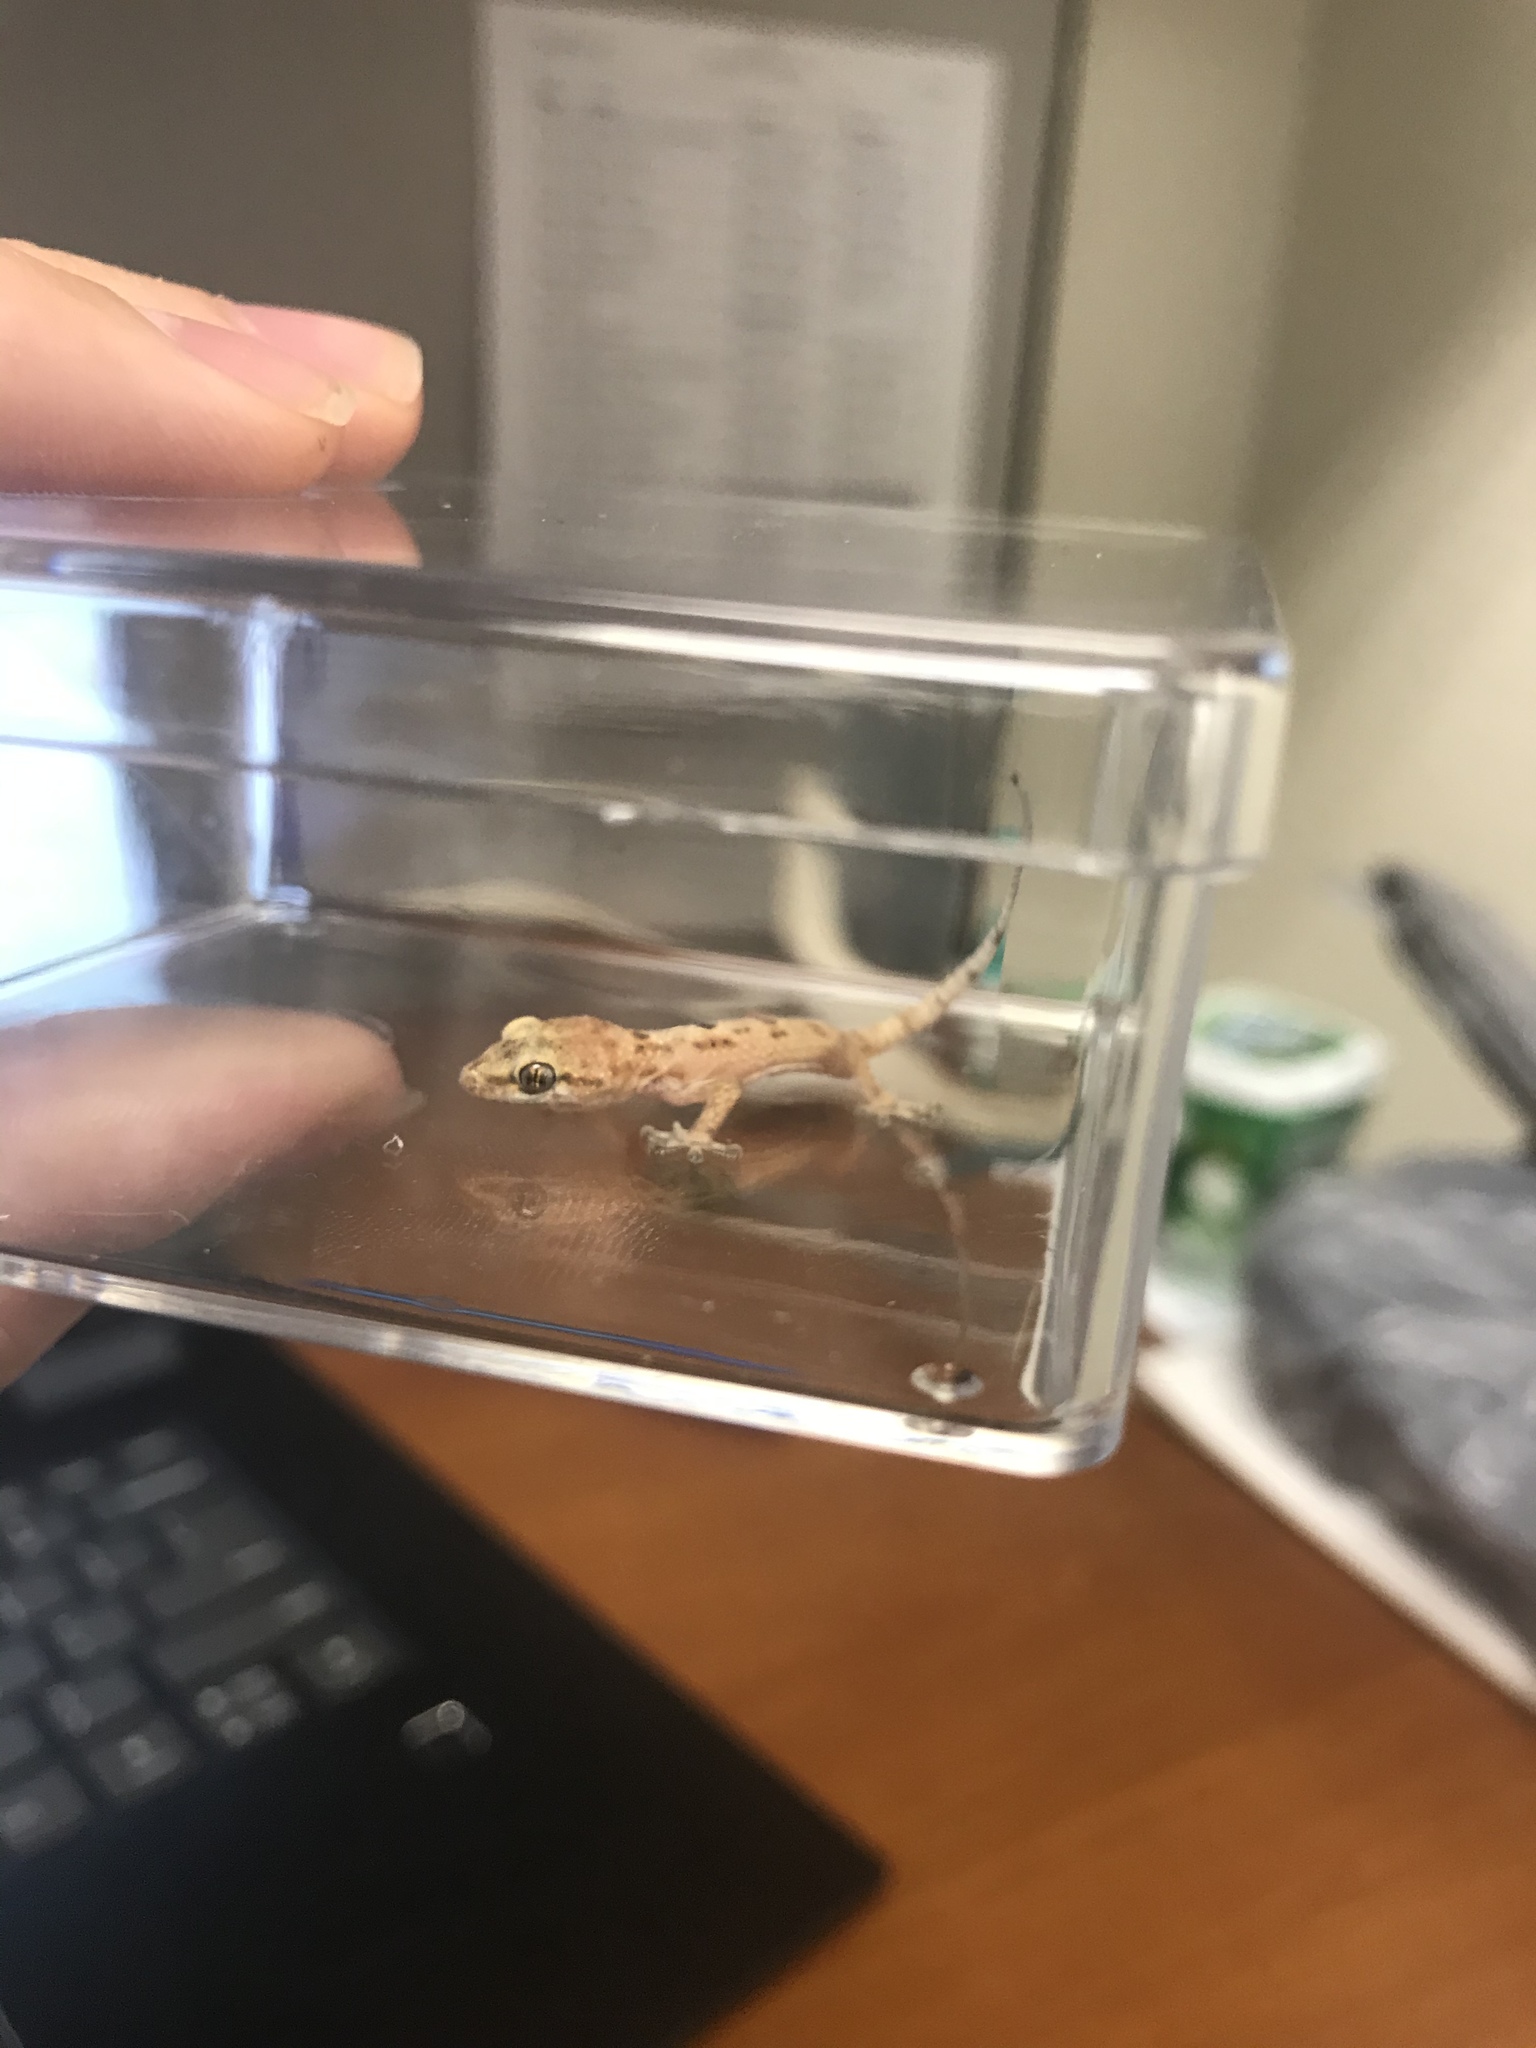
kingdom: Animalia
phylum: Chordata
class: Squamata
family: Gekkonidae
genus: Hemidactylus
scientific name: Hemidactylus turcicus
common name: Turkish gecko
